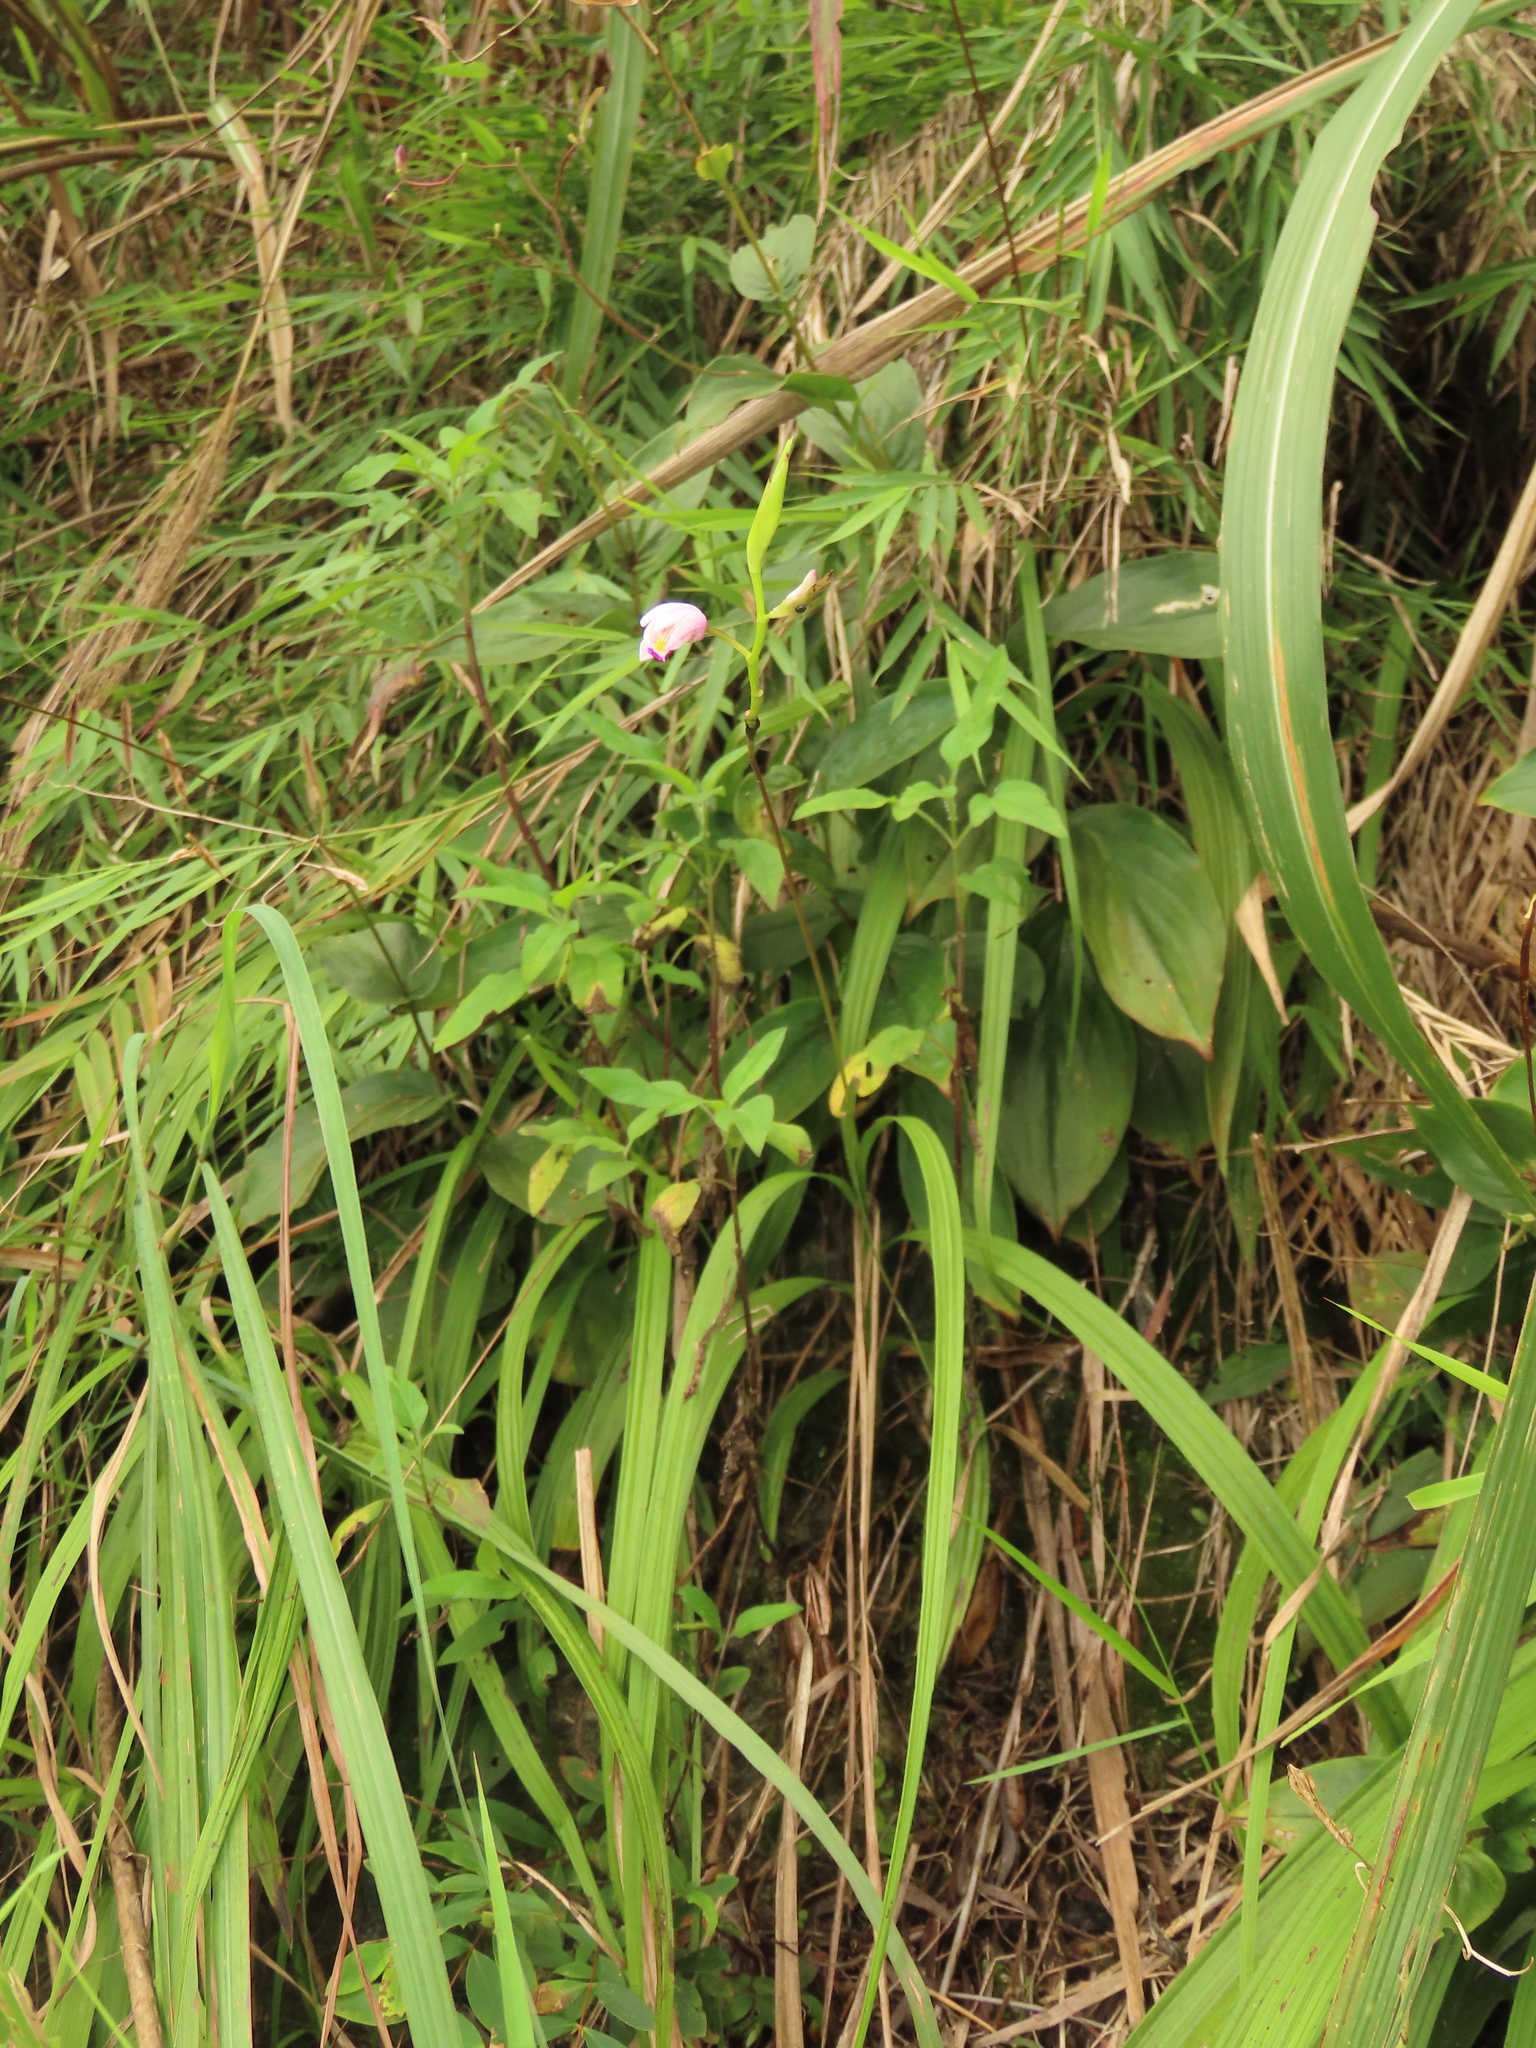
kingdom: Plantae
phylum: Tracheophyta
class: Liliopsida
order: Asparagales
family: Orchidaceae
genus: Bletilla
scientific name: Bletilla formosana
